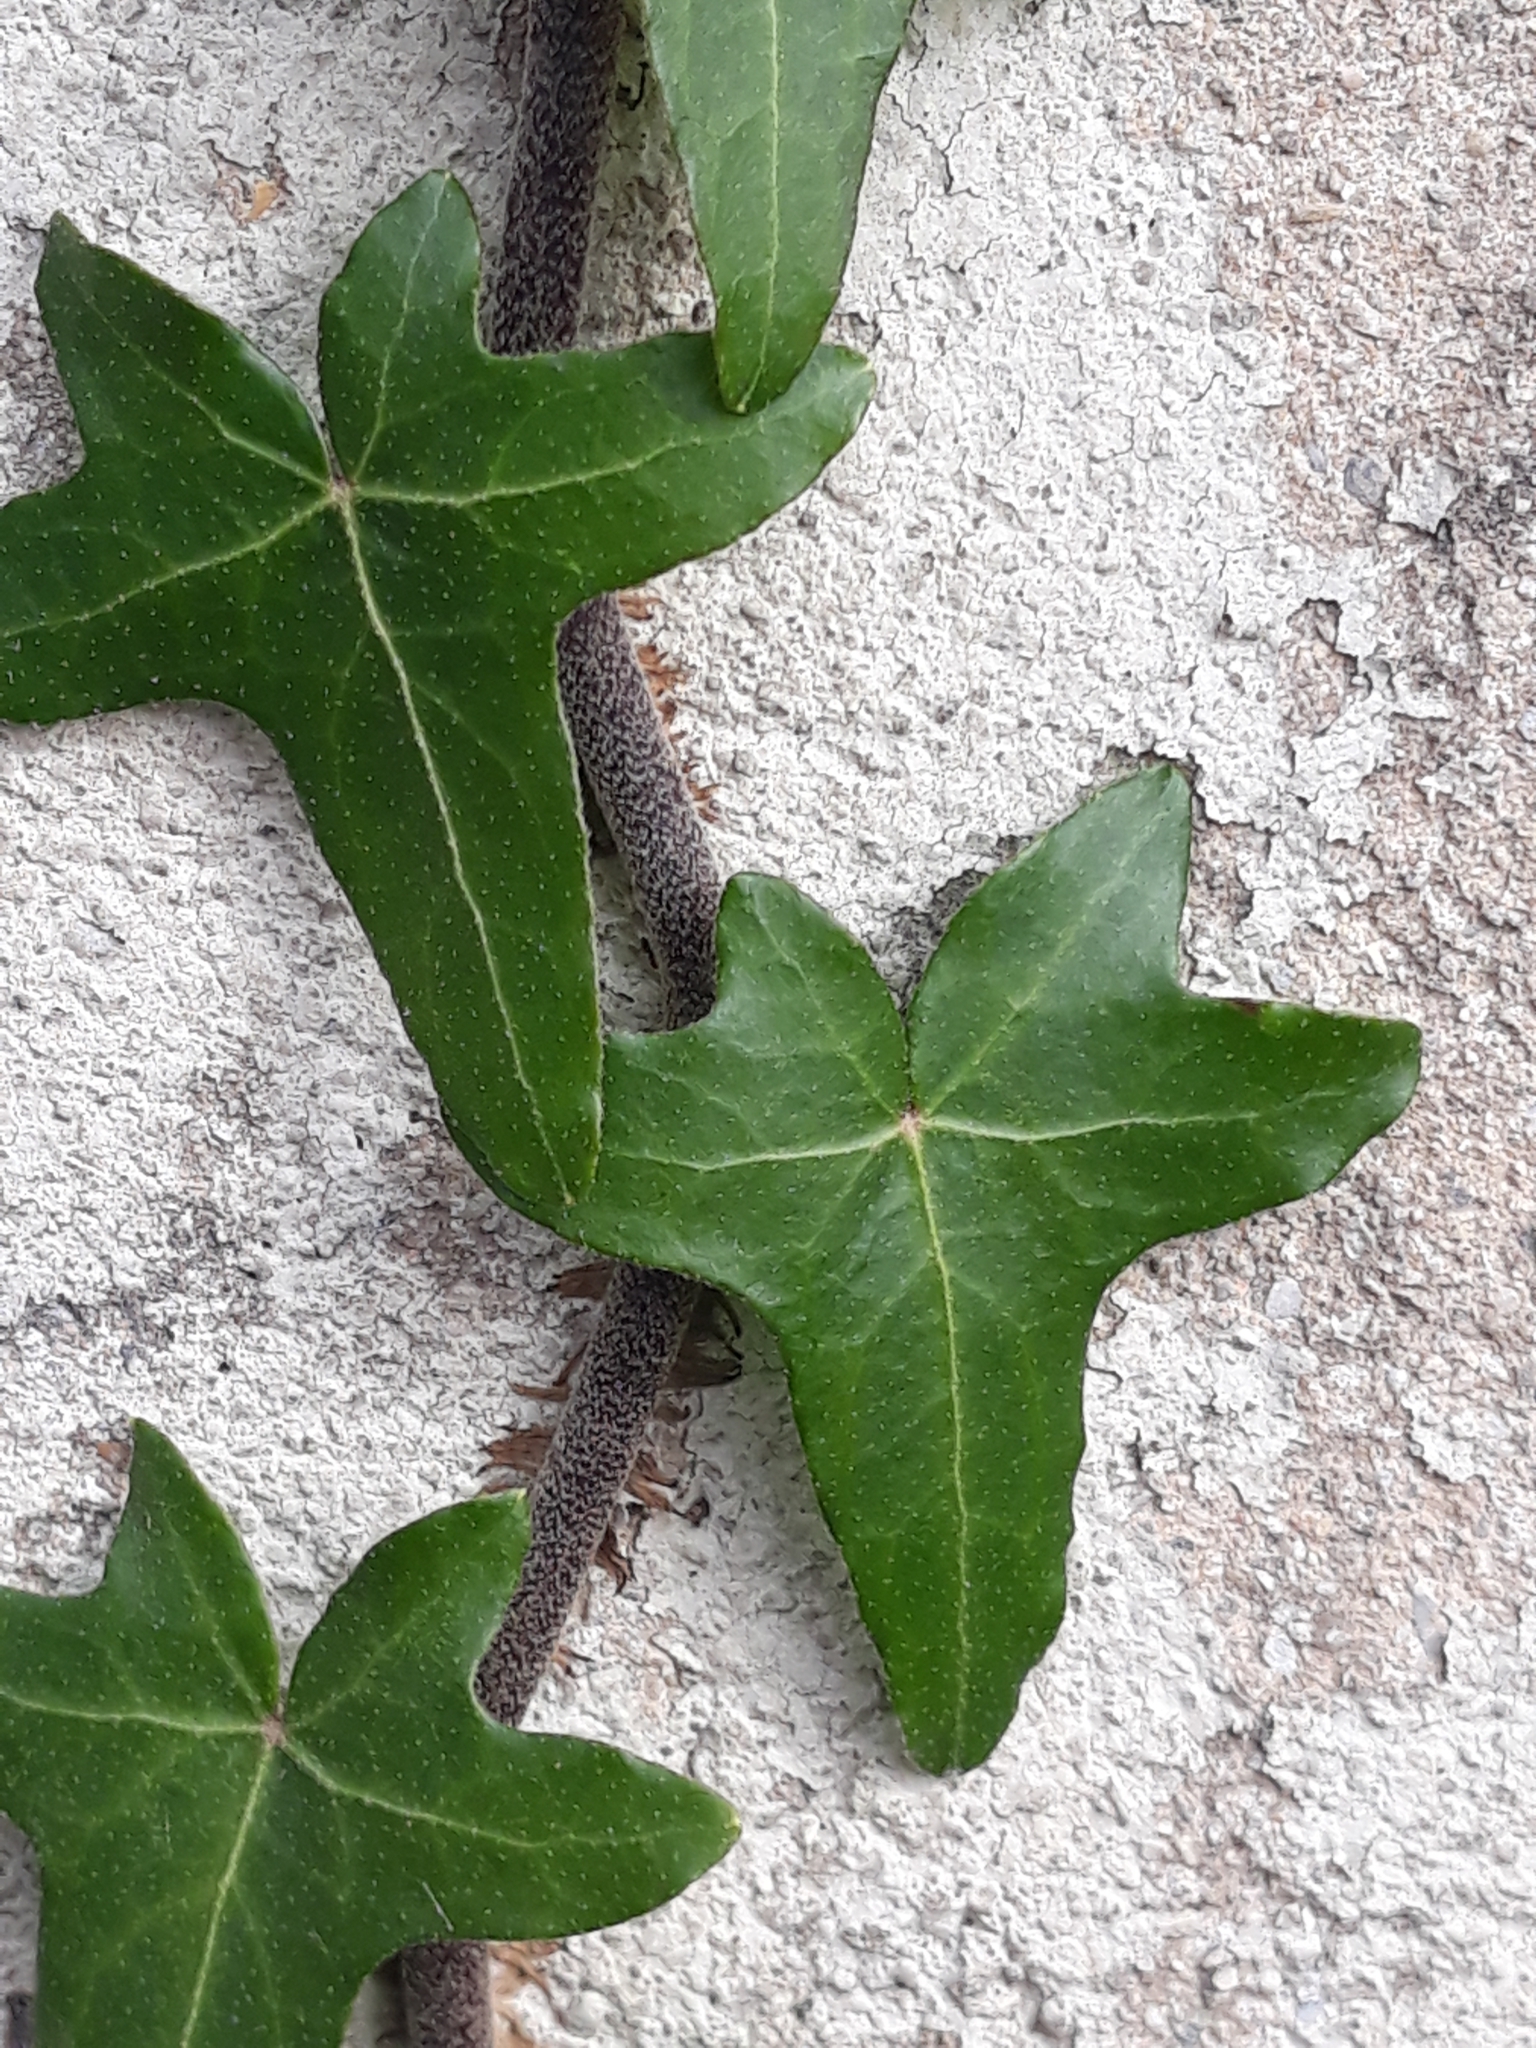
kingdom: Plantae
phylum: Tracheophyta
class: Magnoliopsida
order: Apiales
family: Araliaceae
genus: Hedera
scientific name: Hedera helix
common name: Ivy
